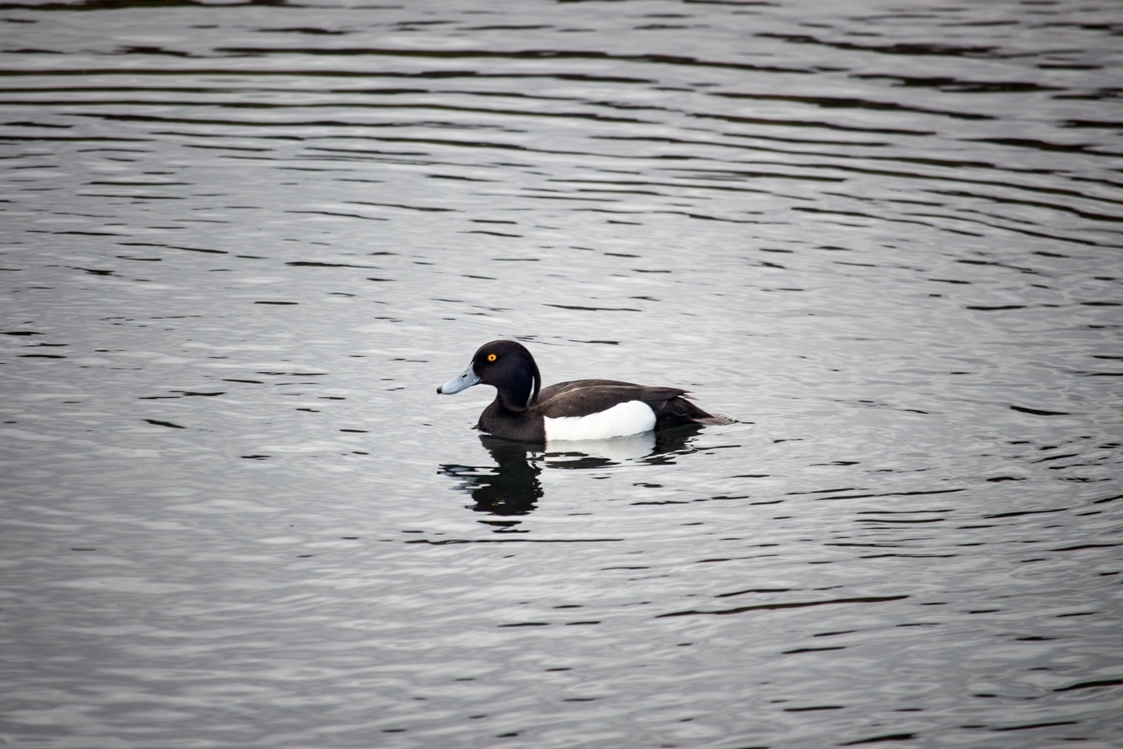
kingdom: Animalia
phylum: Chordata
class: Aves
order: Anseriformes
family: Anatidae
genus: Aythya
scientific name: Aythya fuligula
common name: Tufted duck
